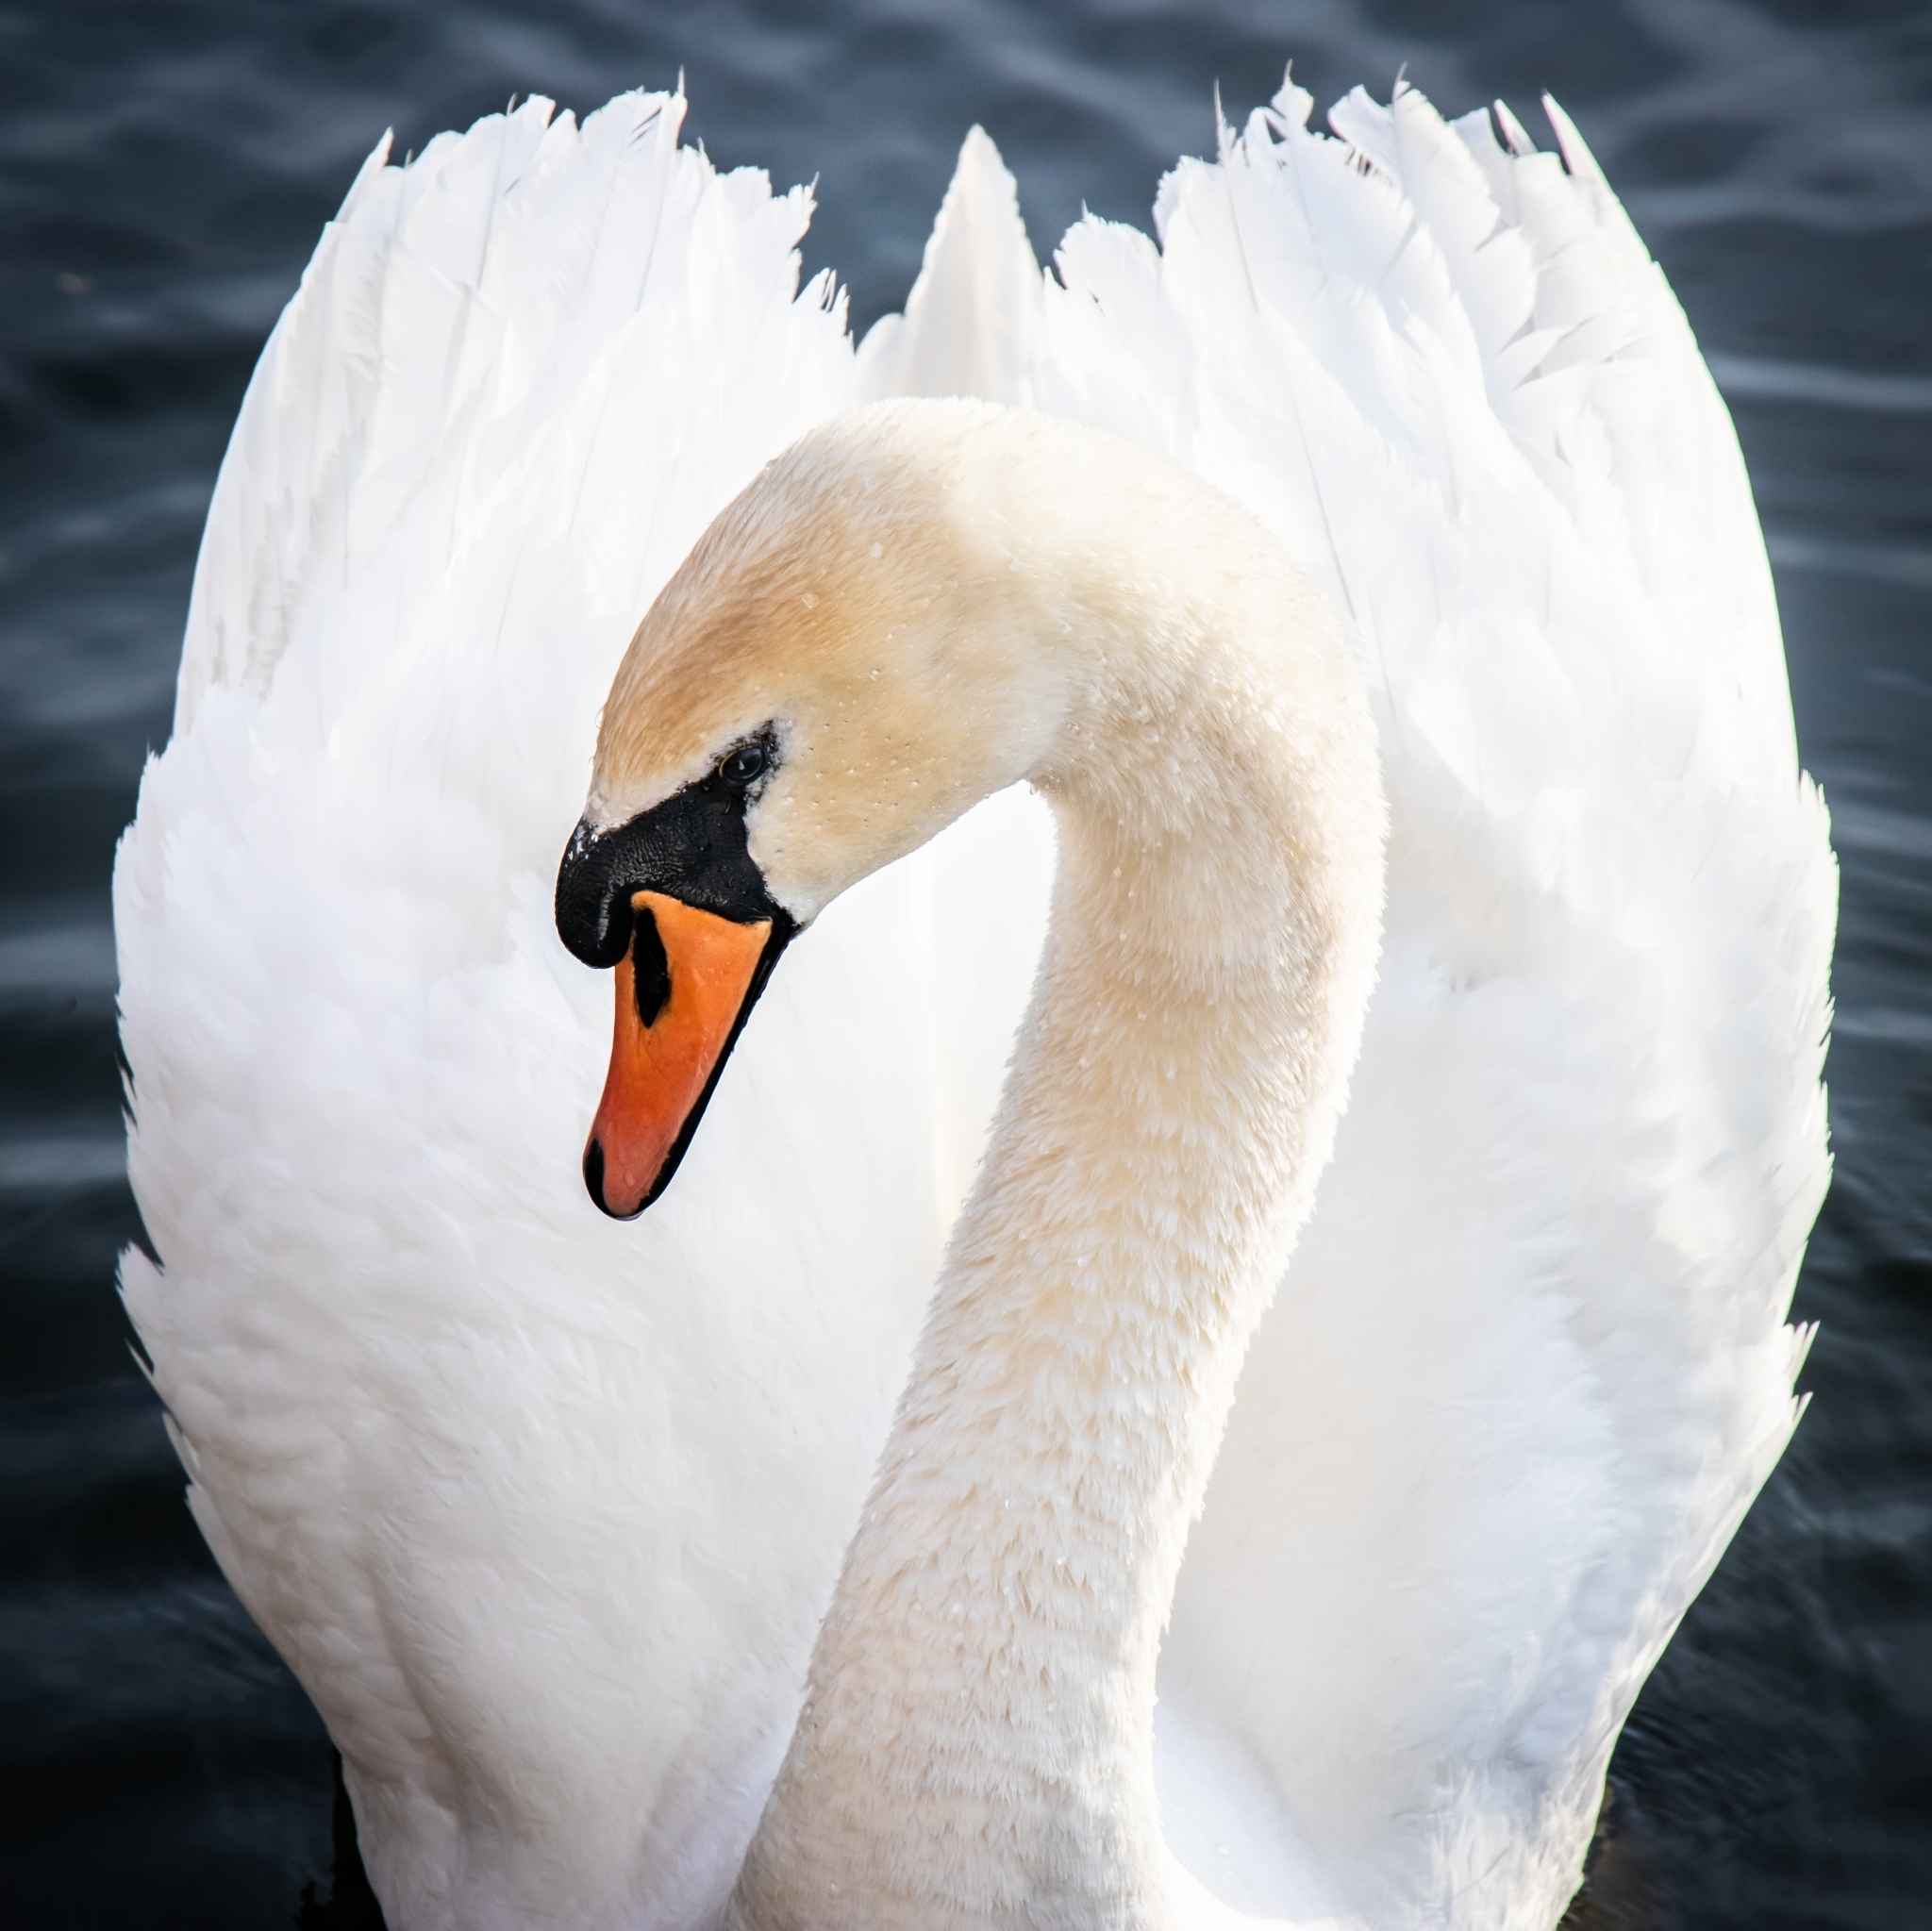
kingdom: Animalia
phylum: Chordata
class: Aves
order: Anseriformes
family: Anatidae
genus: Cygnus
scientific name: Cygnus olor
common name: Mute swan
